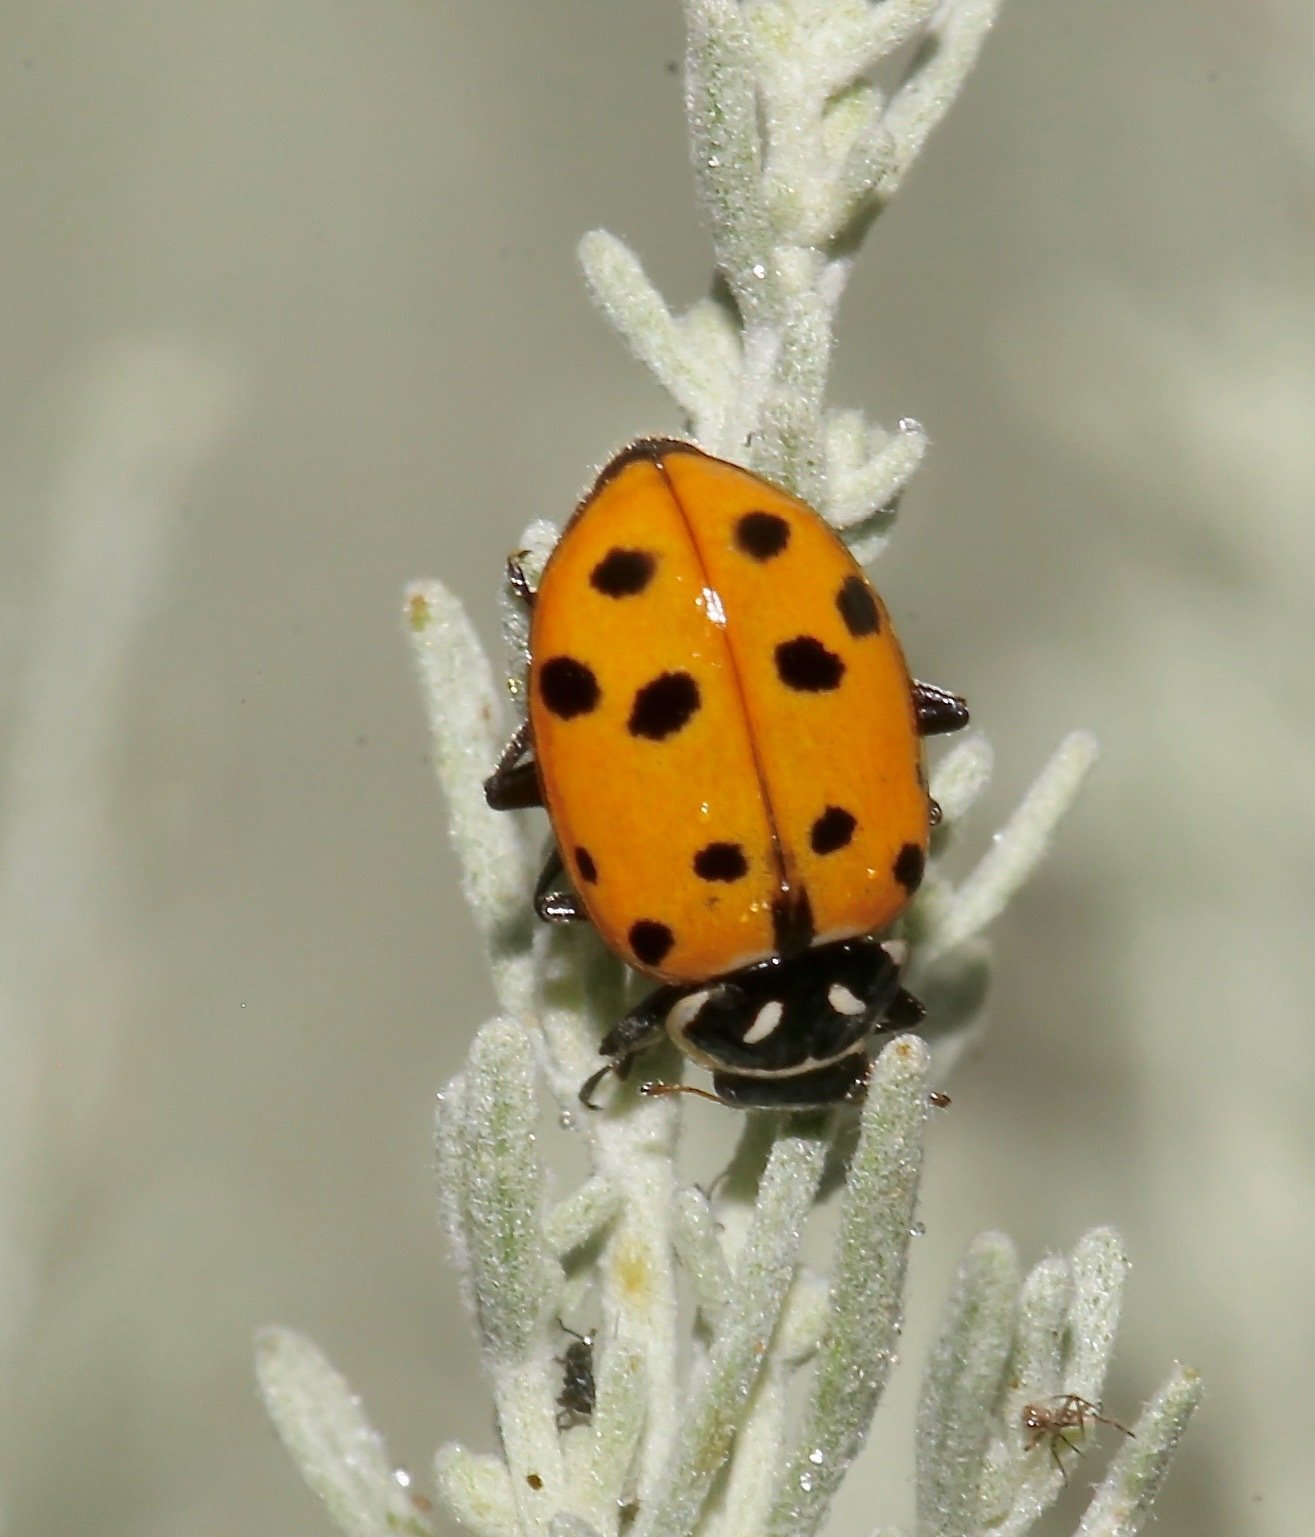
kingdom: Animalia
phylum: Arthropoda
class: Insecta
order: Coleoptera
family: Coccinellidae
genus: Hippodamia
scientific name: Hippodamia convergens
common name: Convergent lady beetle
